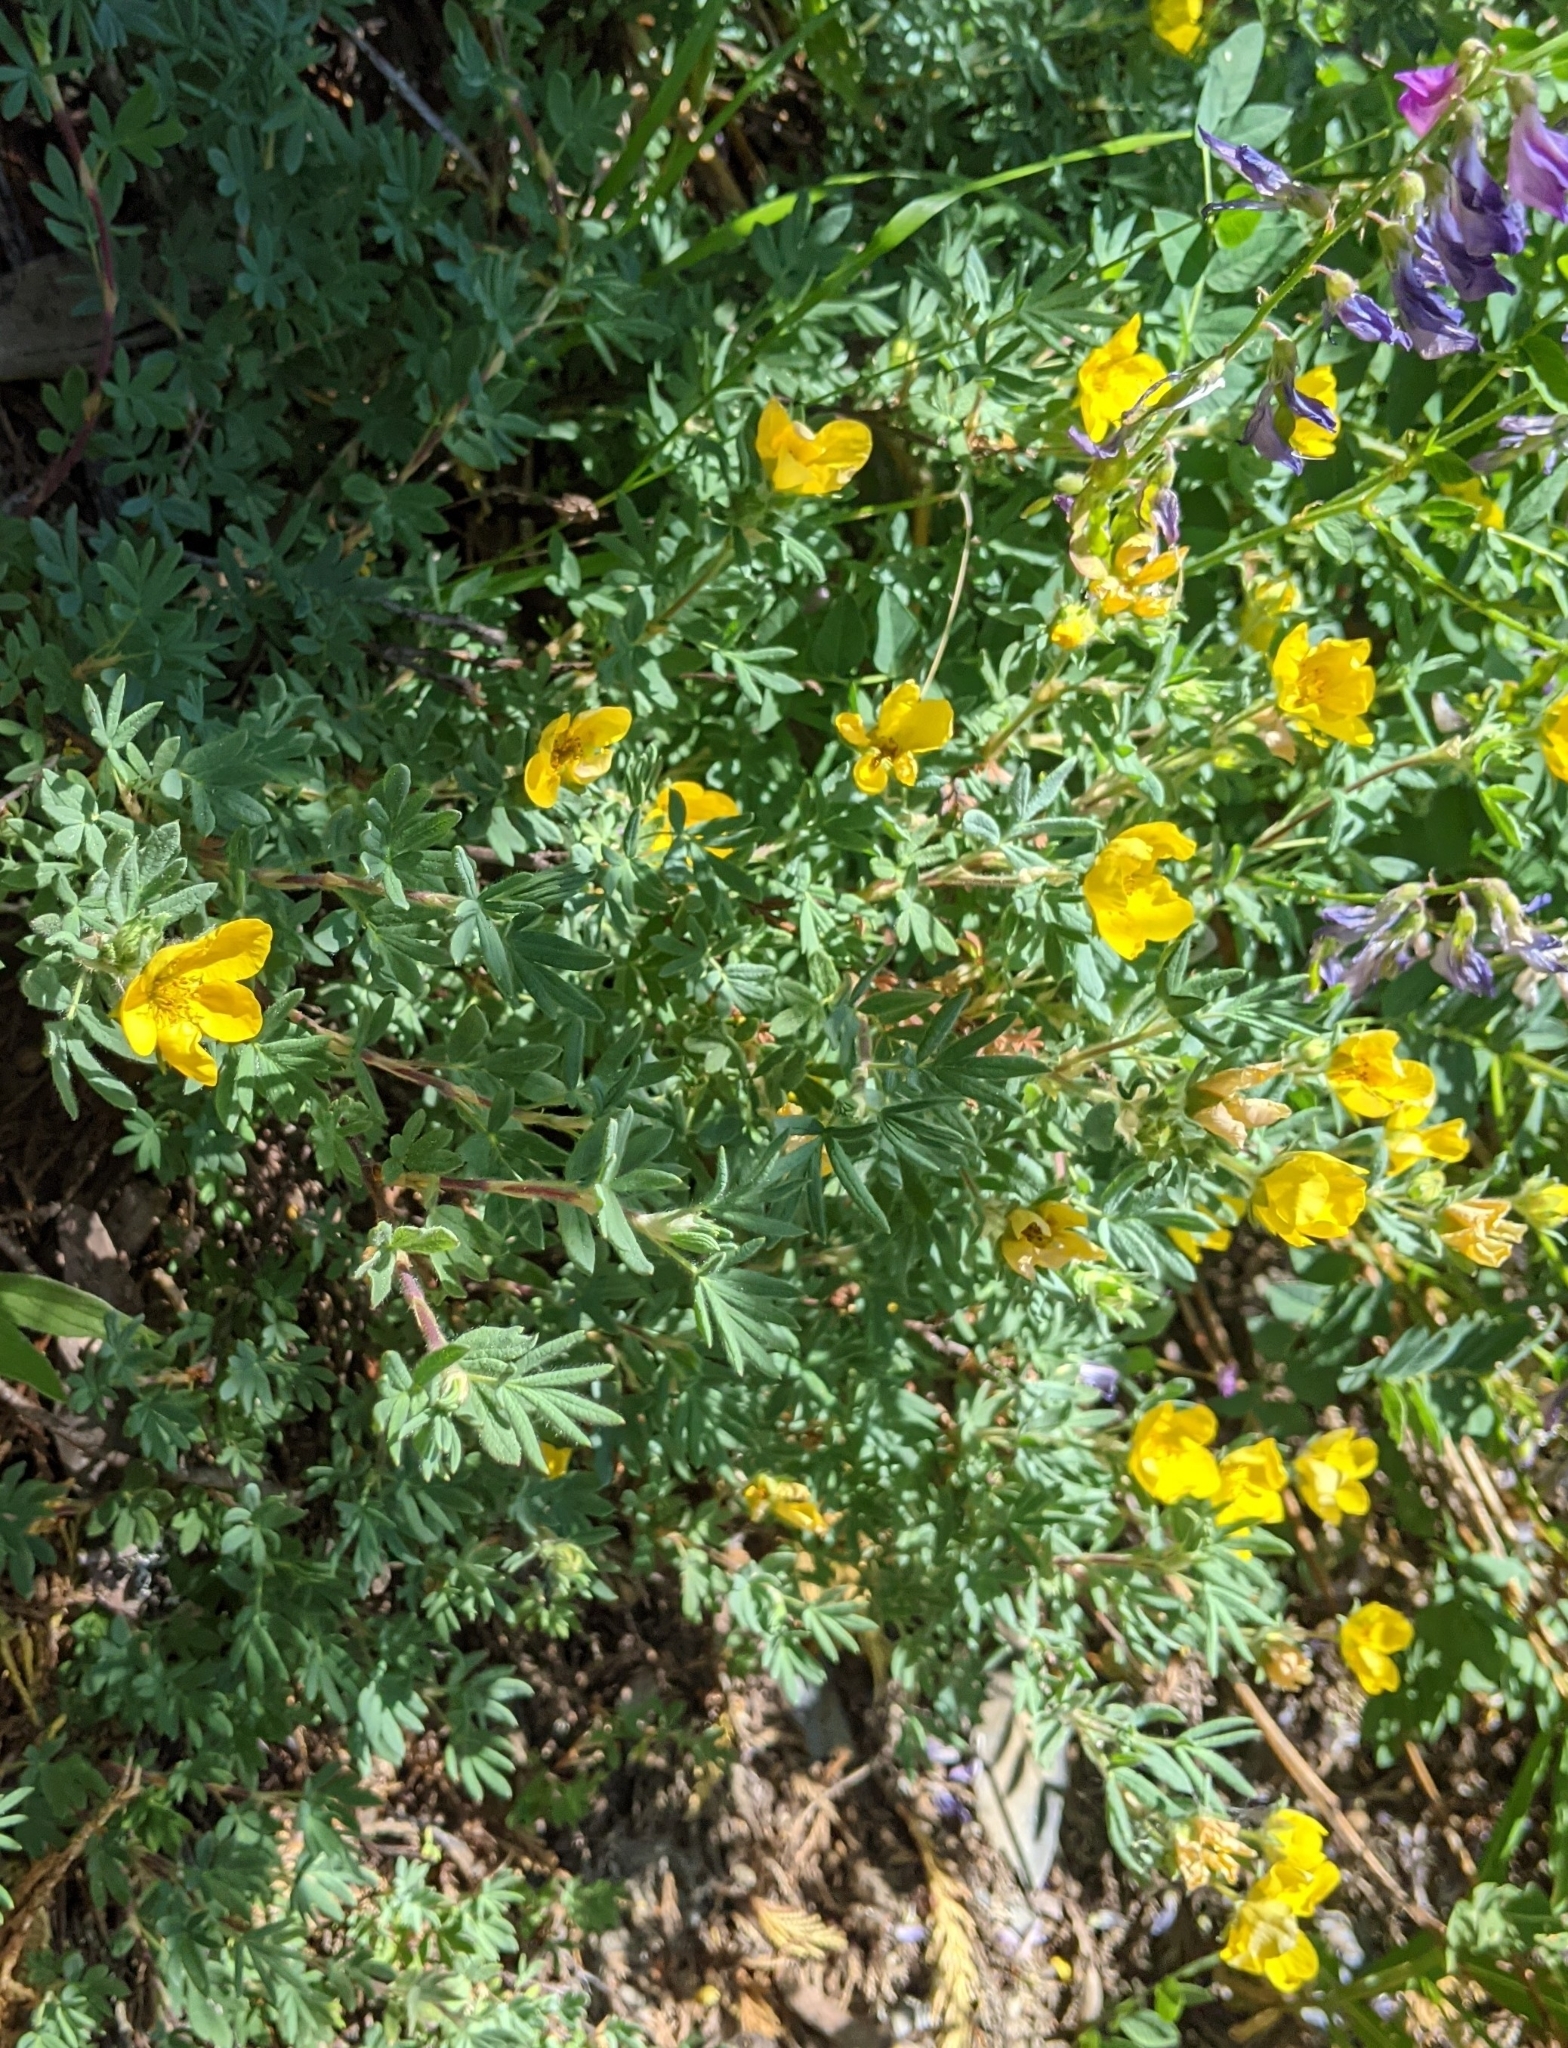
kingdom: Plantae
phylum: Tracheophyta
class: Magnoliopsida
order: Rosales
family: Rosaceae
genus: Dasiphora
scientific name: Dasiphora fruticosa
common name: Shrubby cinquefoil
